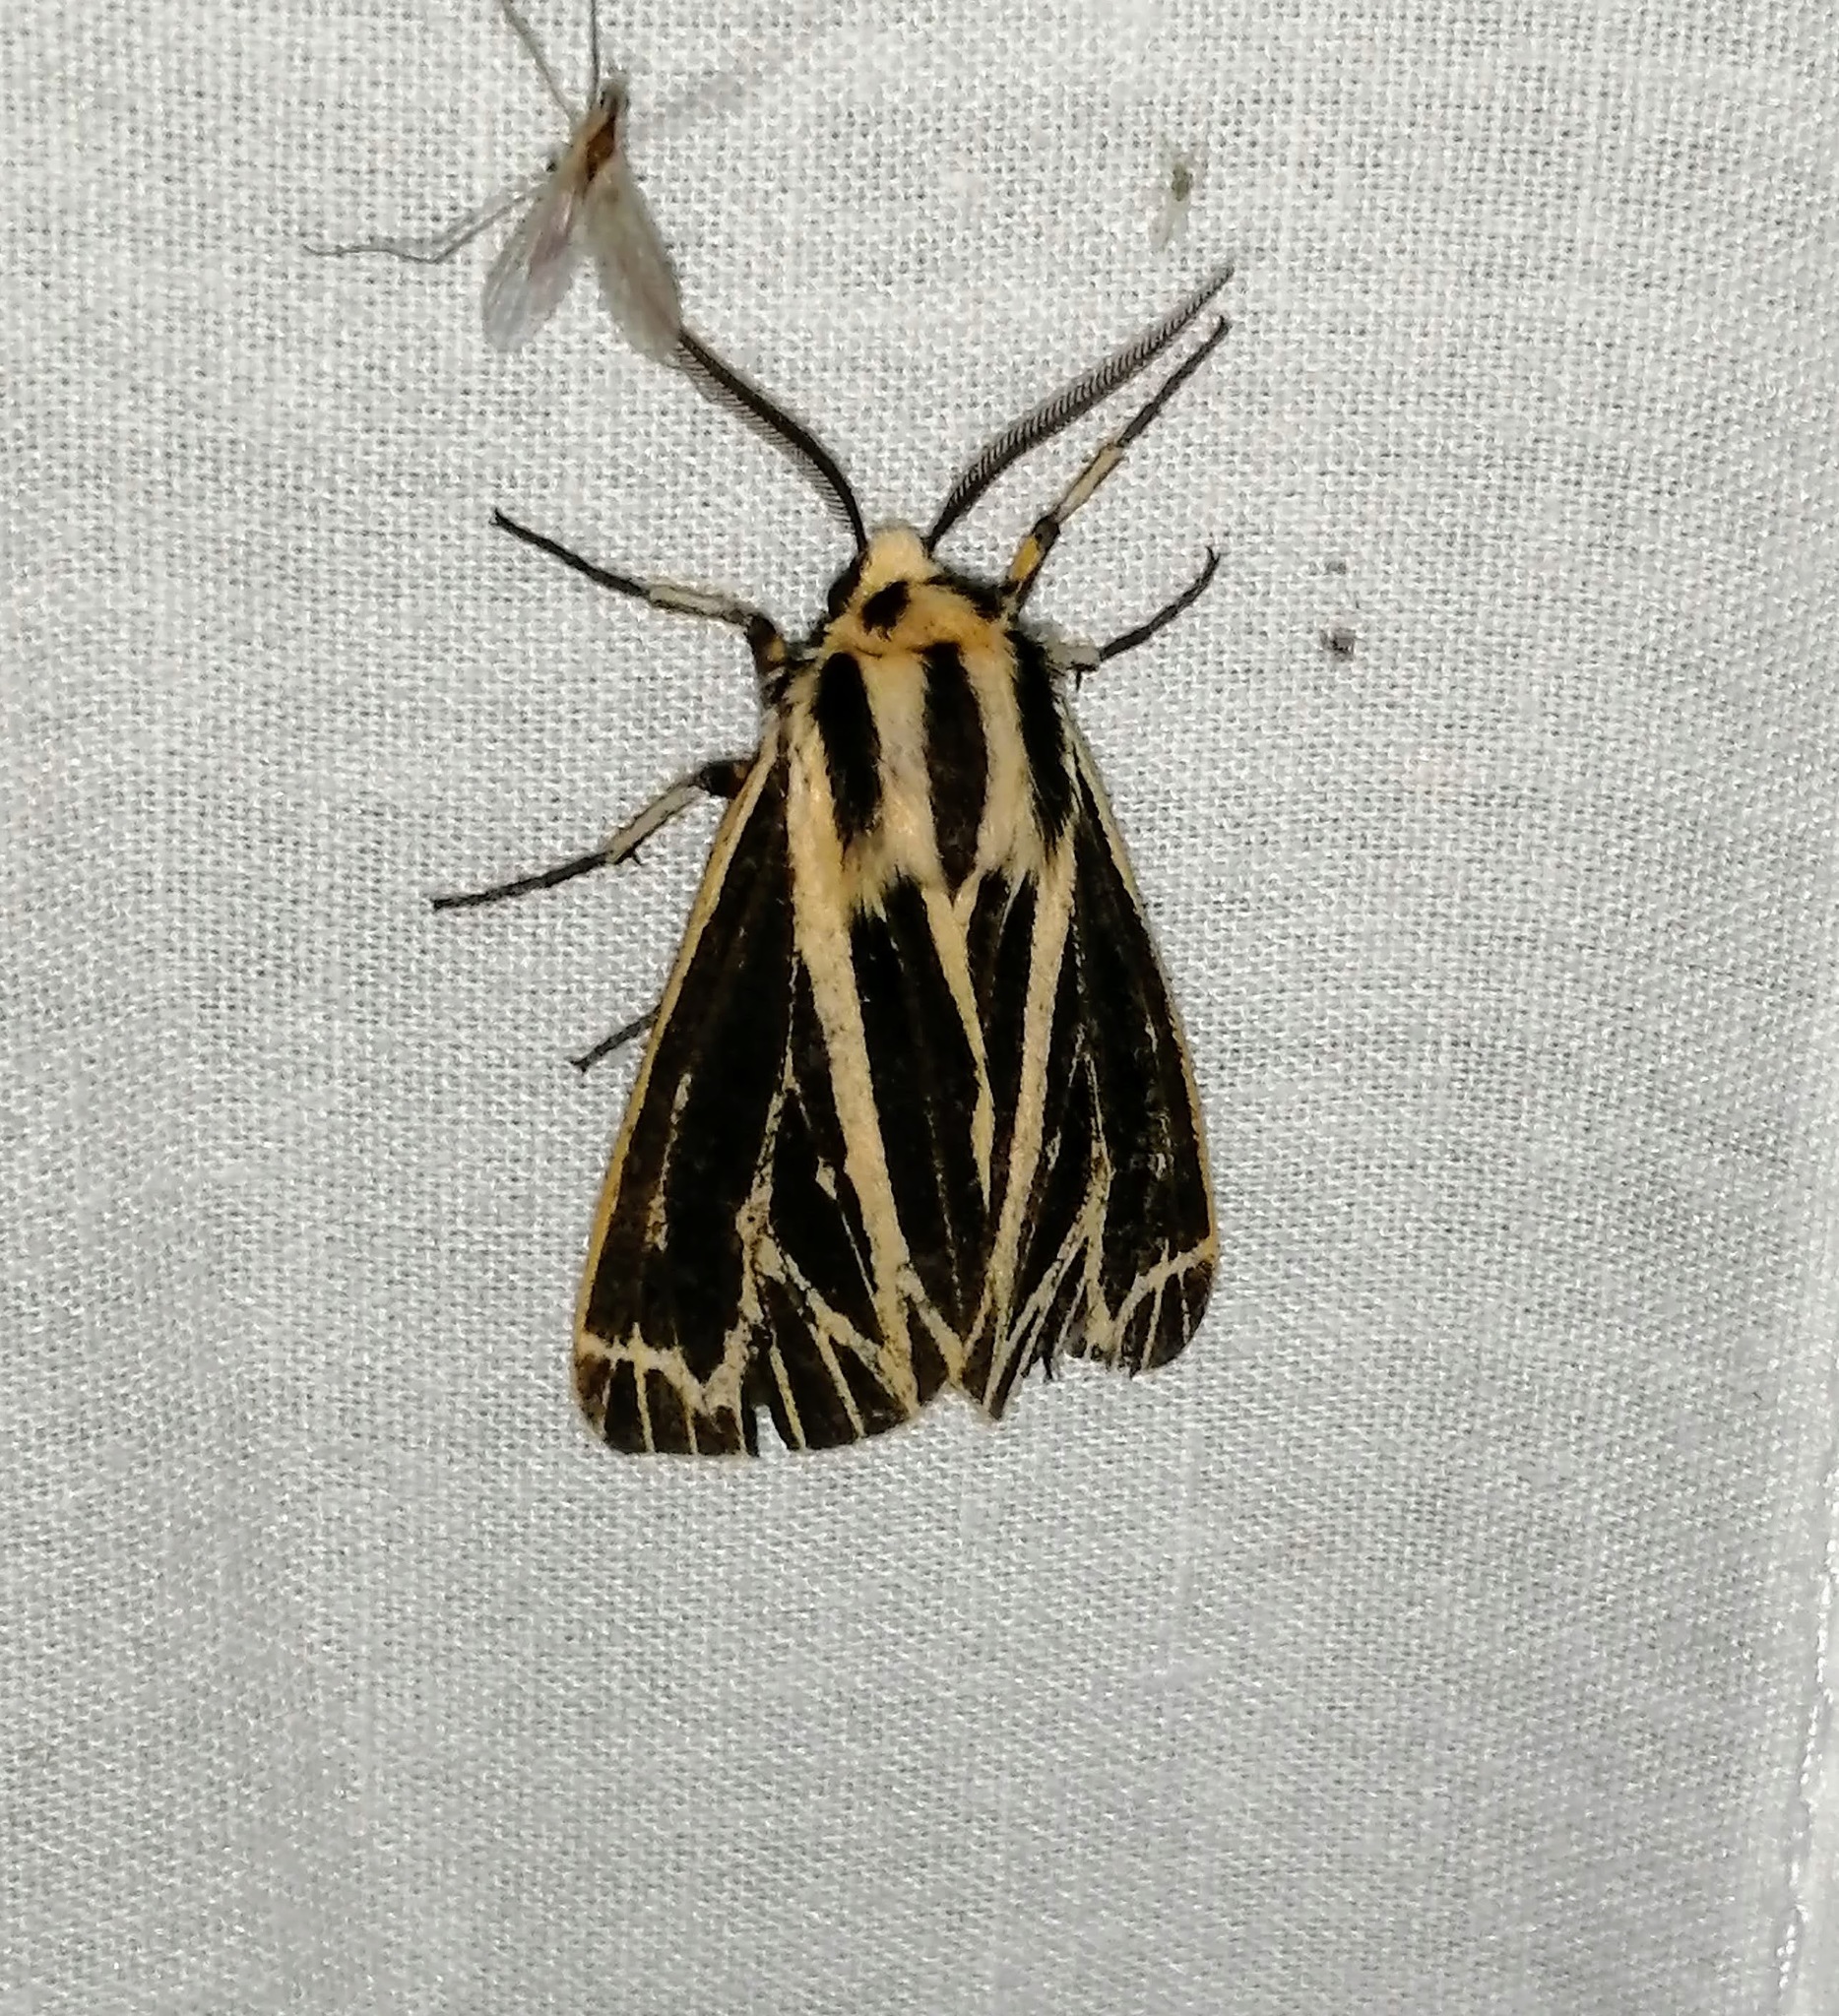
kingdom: Animalia
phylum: Arthropoda
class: Insecta
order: Lepidoptera
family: Erebidae
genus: Grammia
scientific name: Grammia virguncula
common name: Little tiger moth
